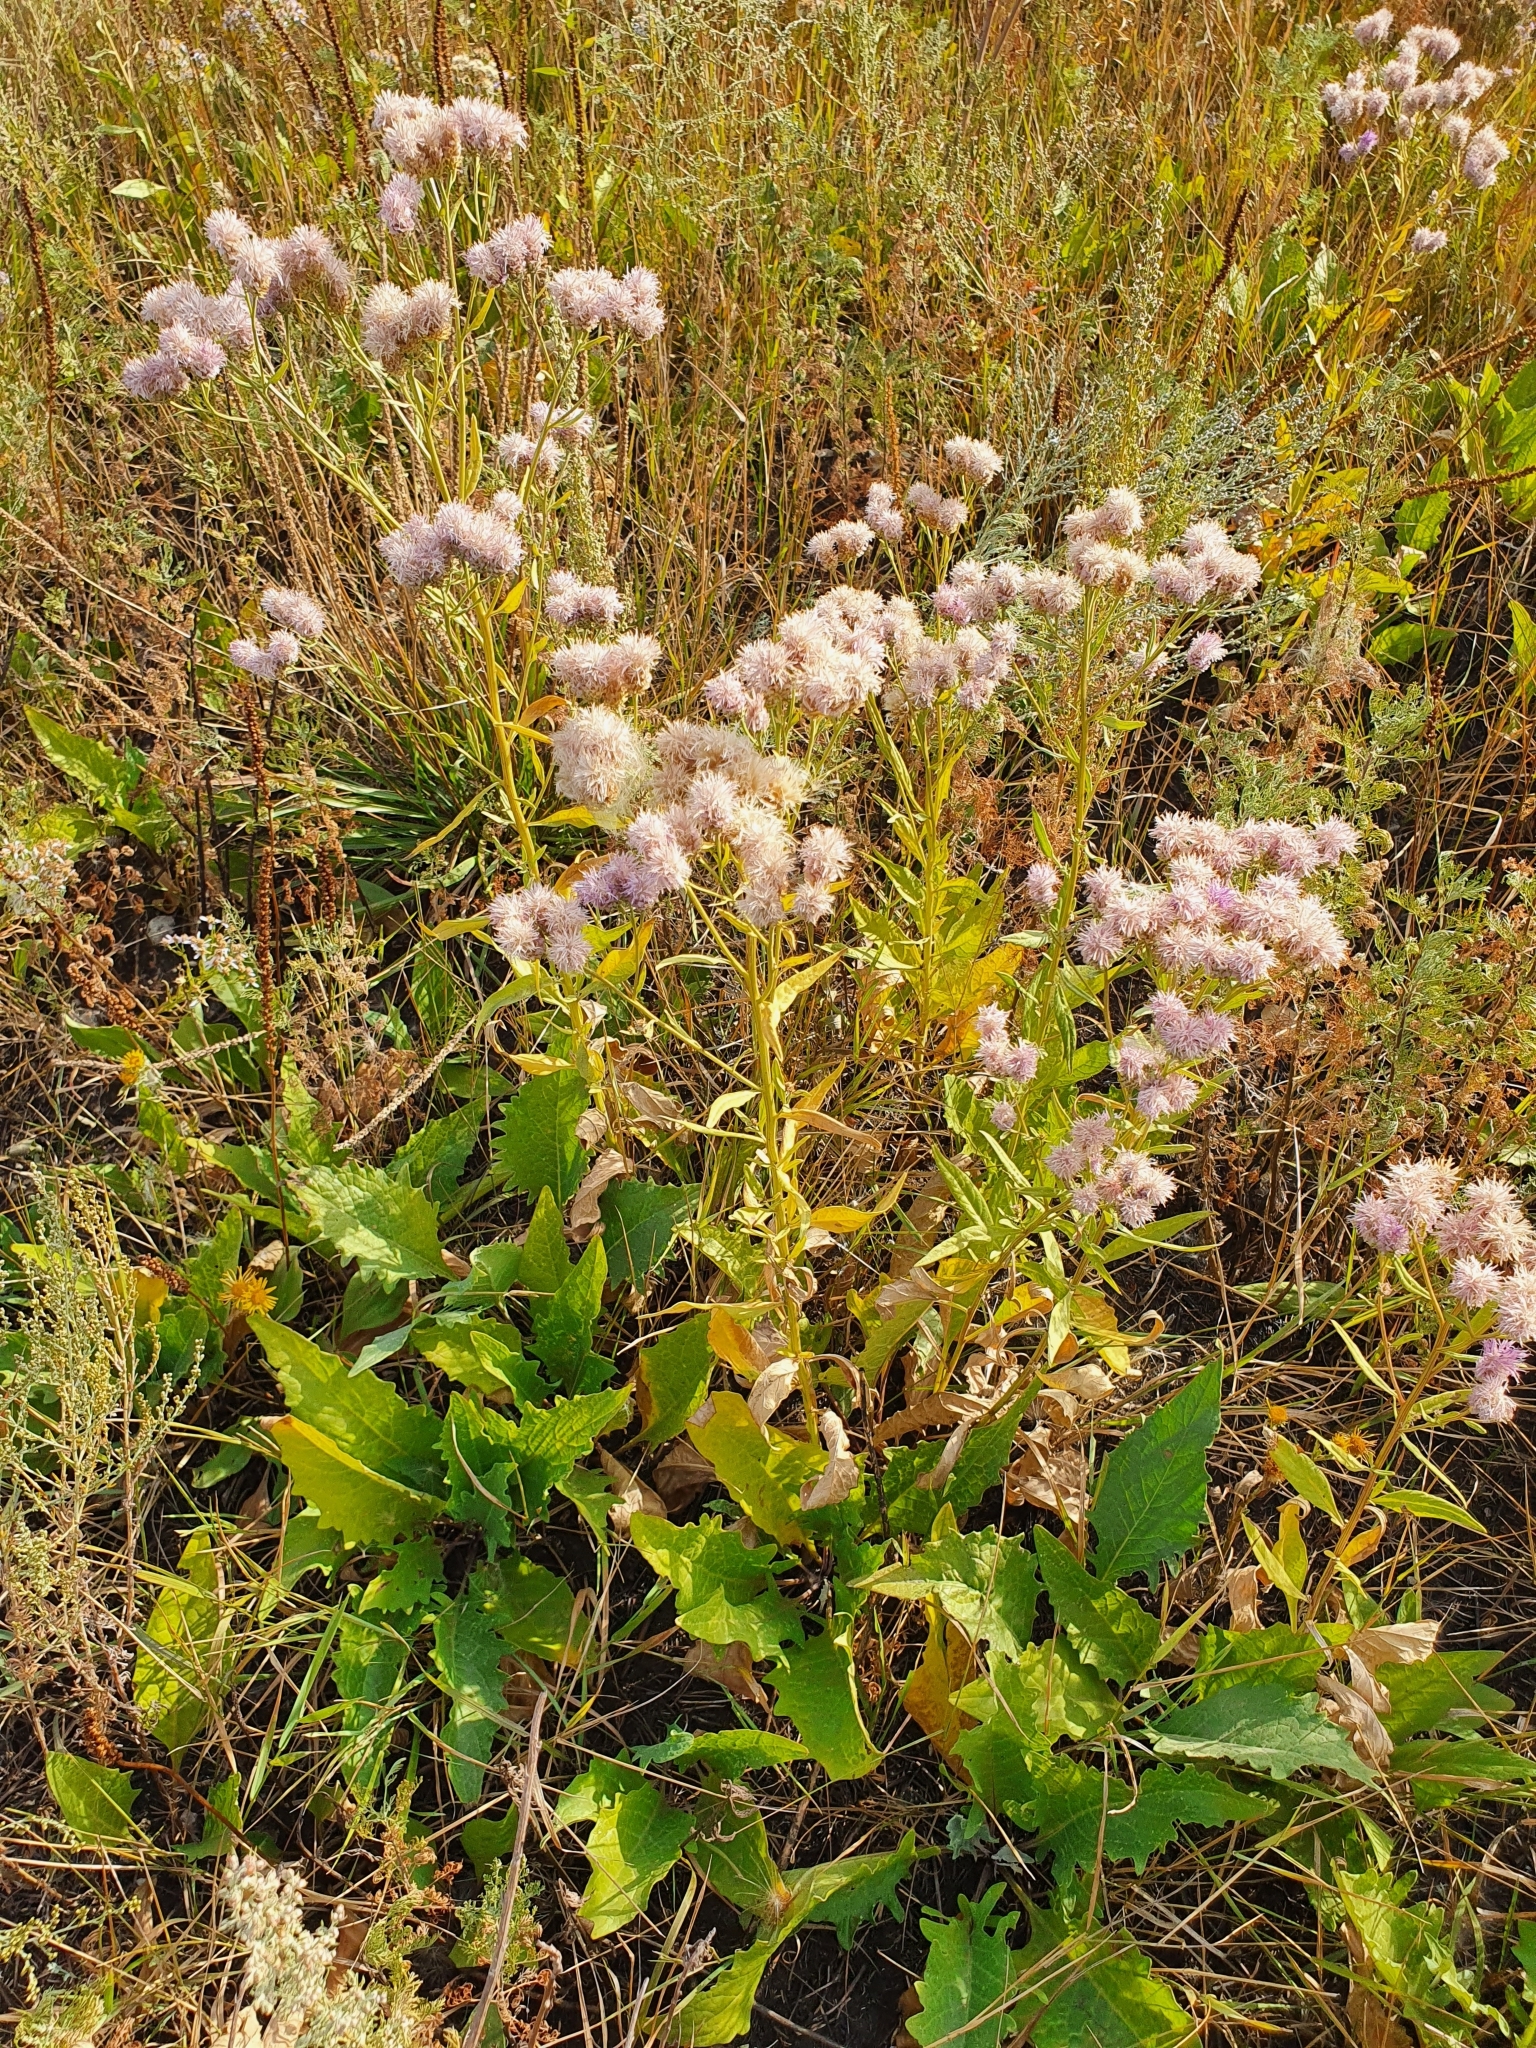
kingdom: Plantae
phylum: Tracheophyta
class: Magnoliopsida
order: Asterales
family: Asteraceae
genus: Saussurea
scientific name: Saussurea amara
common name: Alberta sawwort
